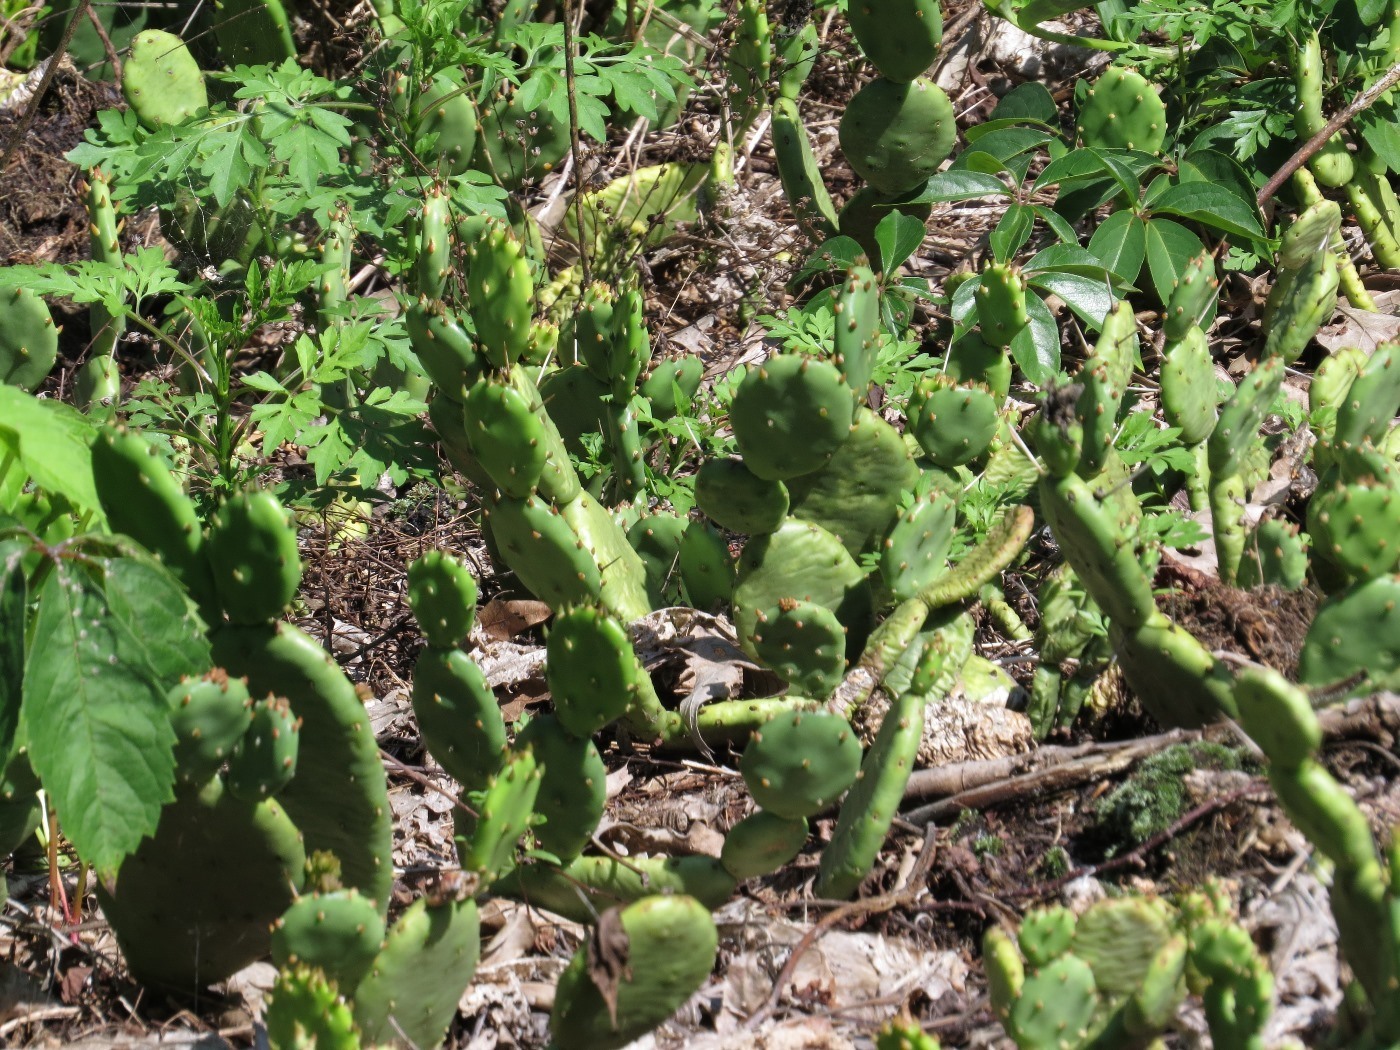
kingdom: Plantae
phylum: Tracheophyta
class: Magnoliopsida
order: Caryophyllales
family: Cactaceae
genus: Opuntia
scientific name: Opuntia mesacantha
